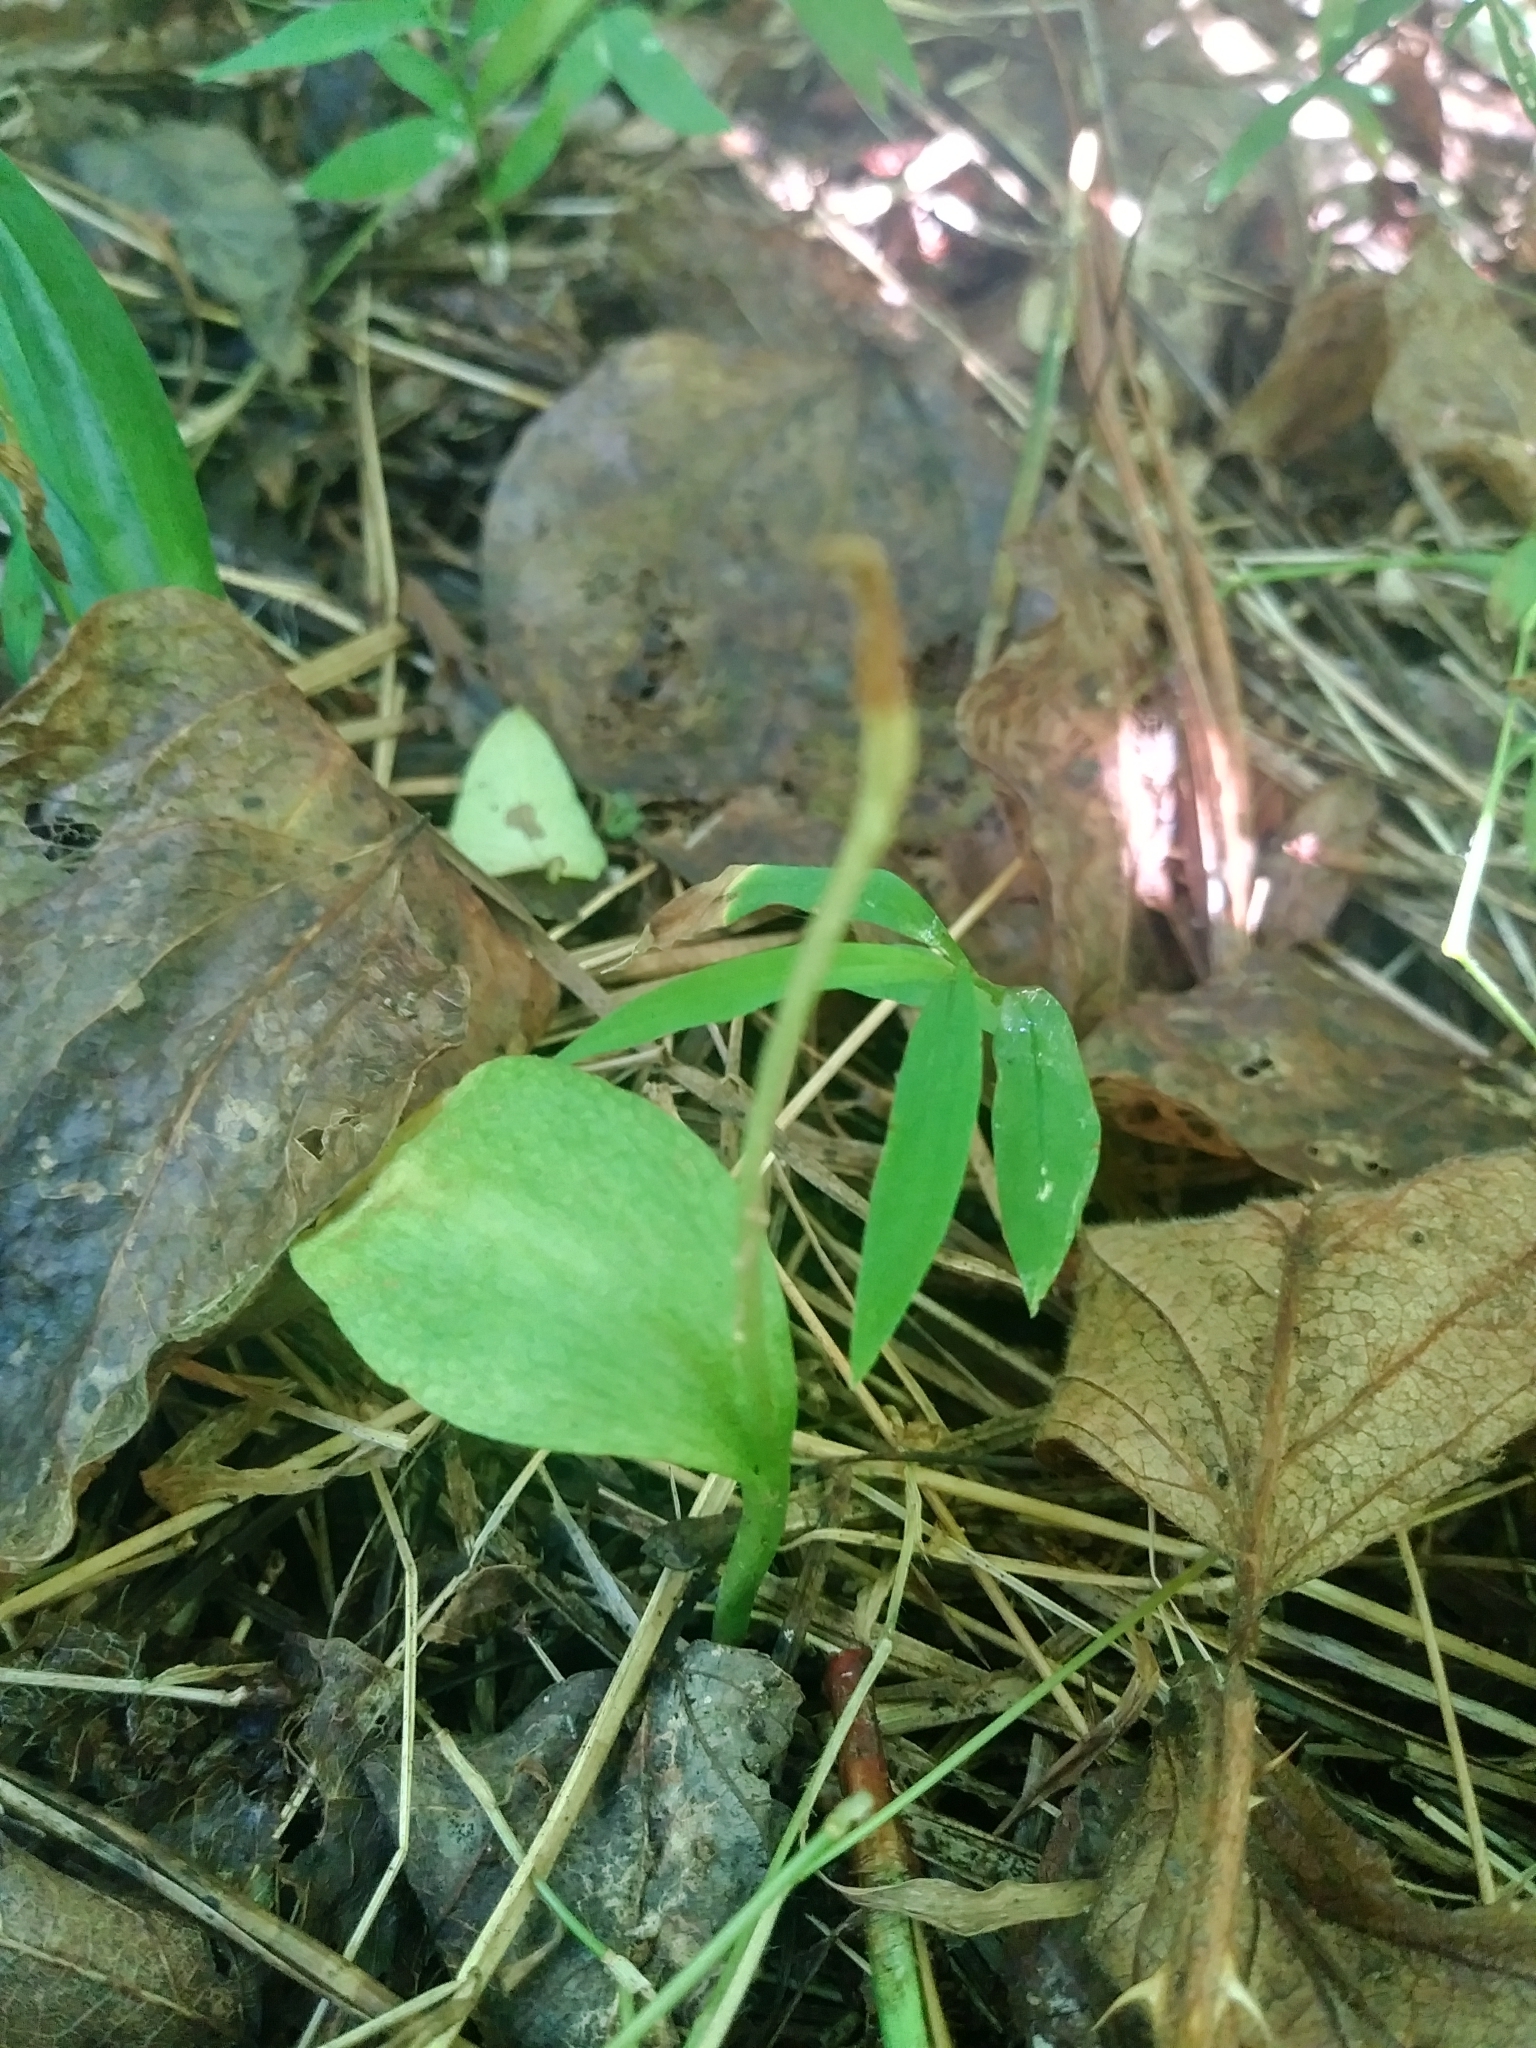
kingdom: Plantae
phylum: Tracheophyta
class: Polypodiopsida
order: Ophioglossales
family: Ophioglossaceae
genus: Ophioglossum
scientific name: Ophioglossum vulgatum
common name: Adder's-tongue
